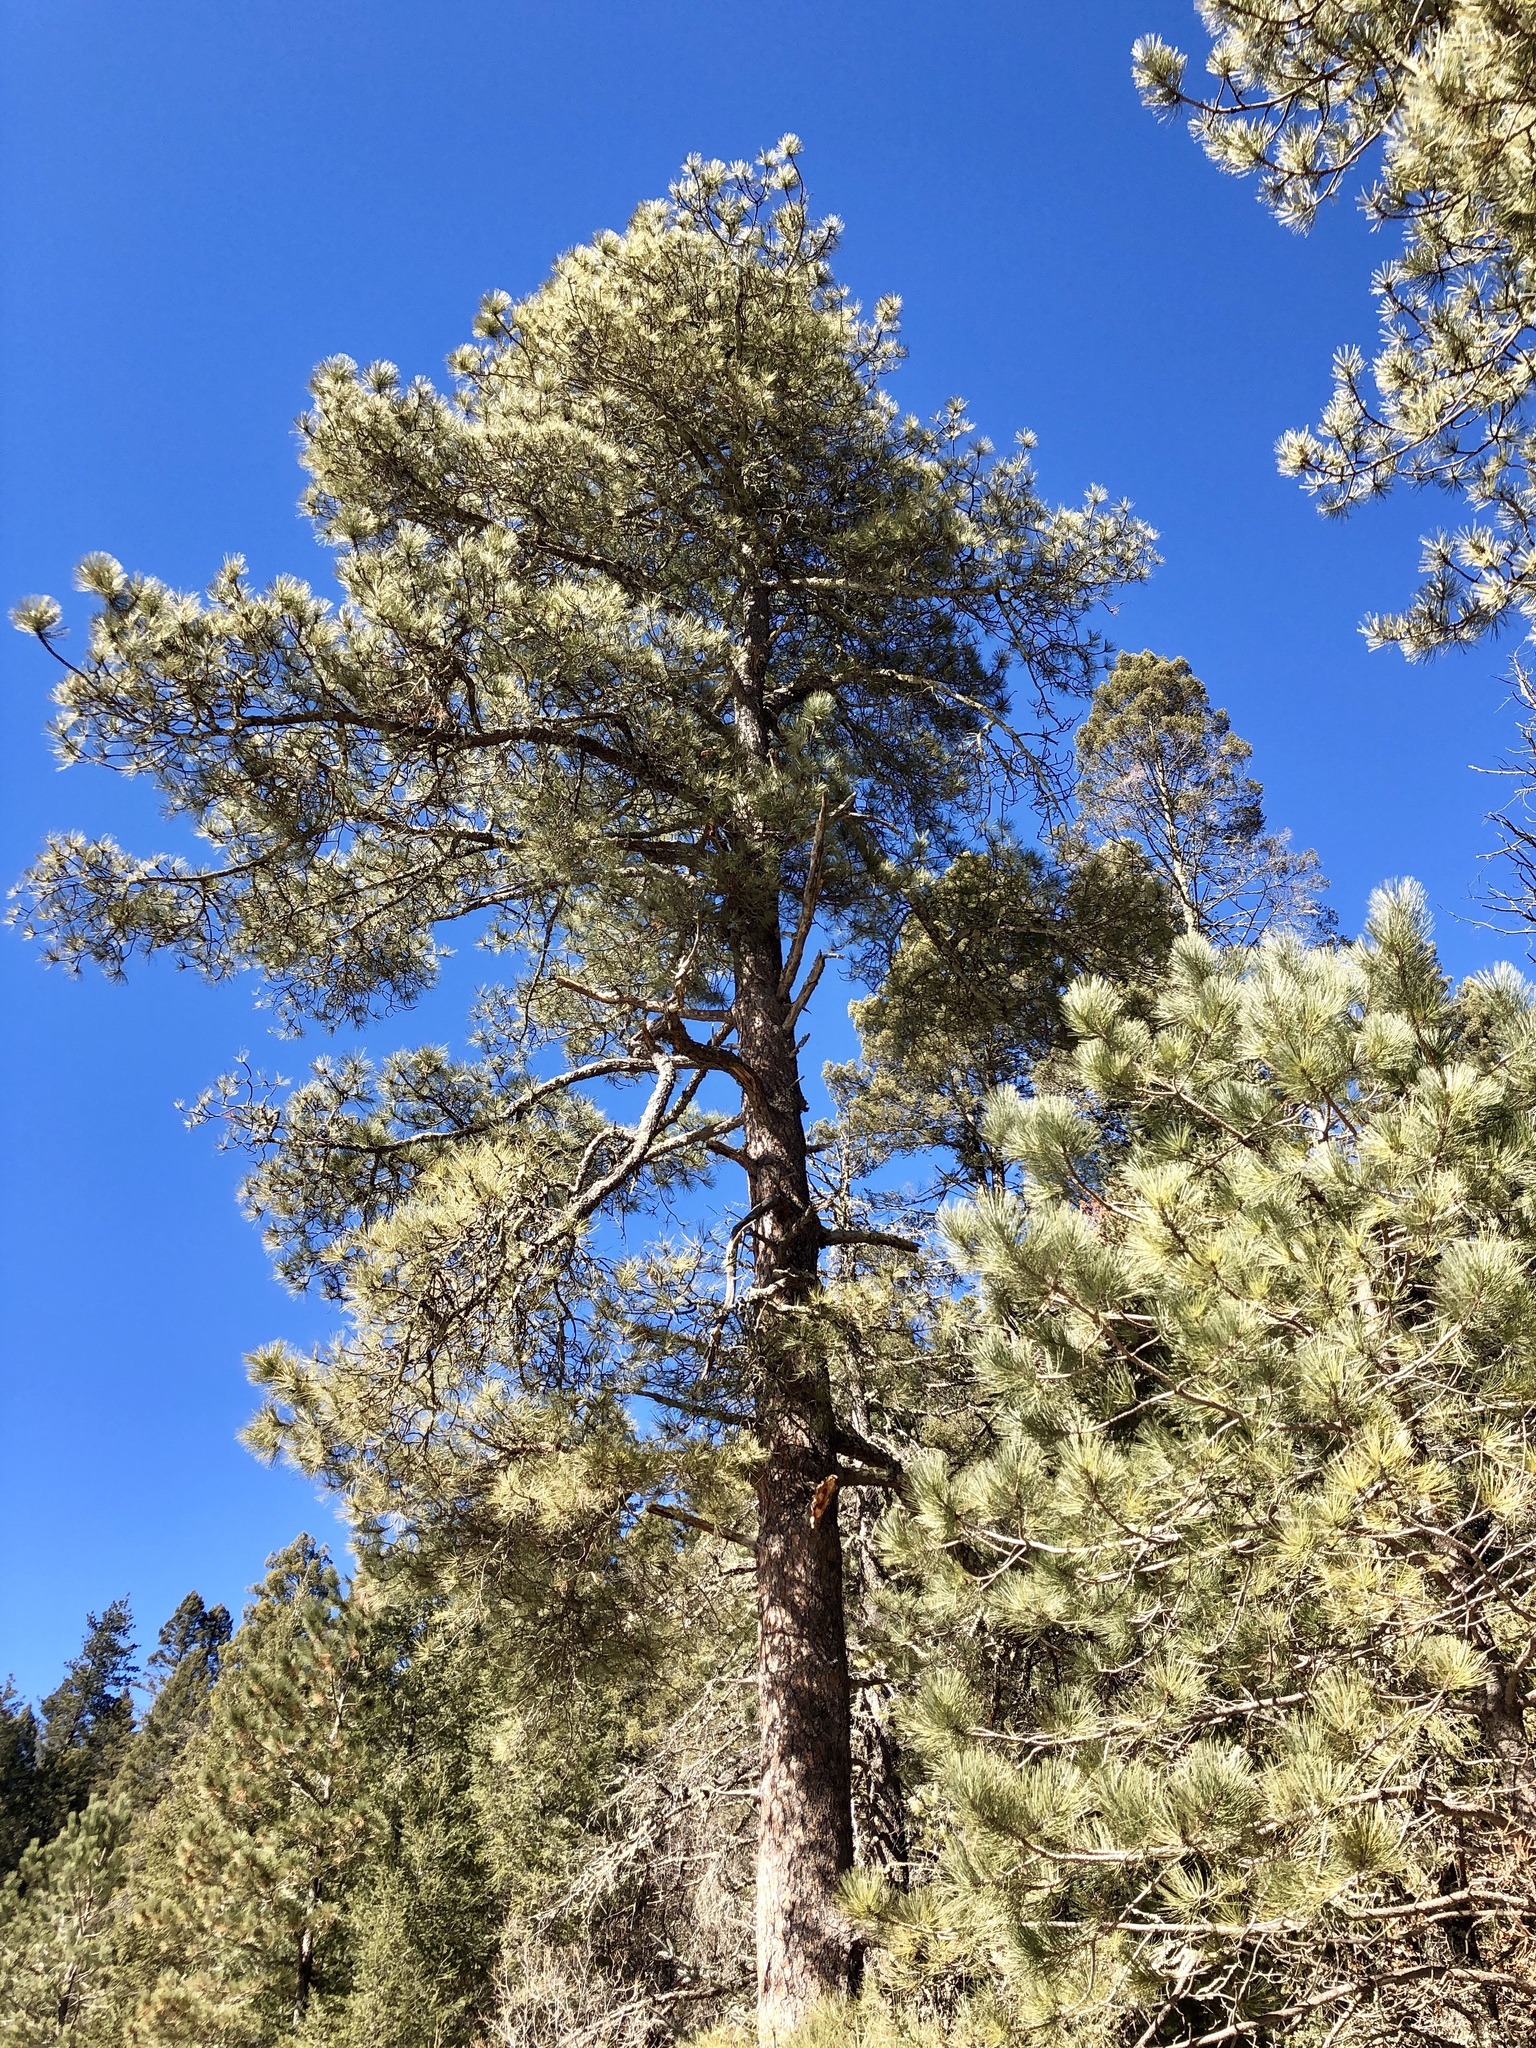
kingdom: Plantae
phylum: Tracheophyta
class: Pinopsida
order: Pinales
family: Pinaceae
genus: Pinus
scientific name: Pinus ponderosa
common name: Western yellow-pine
